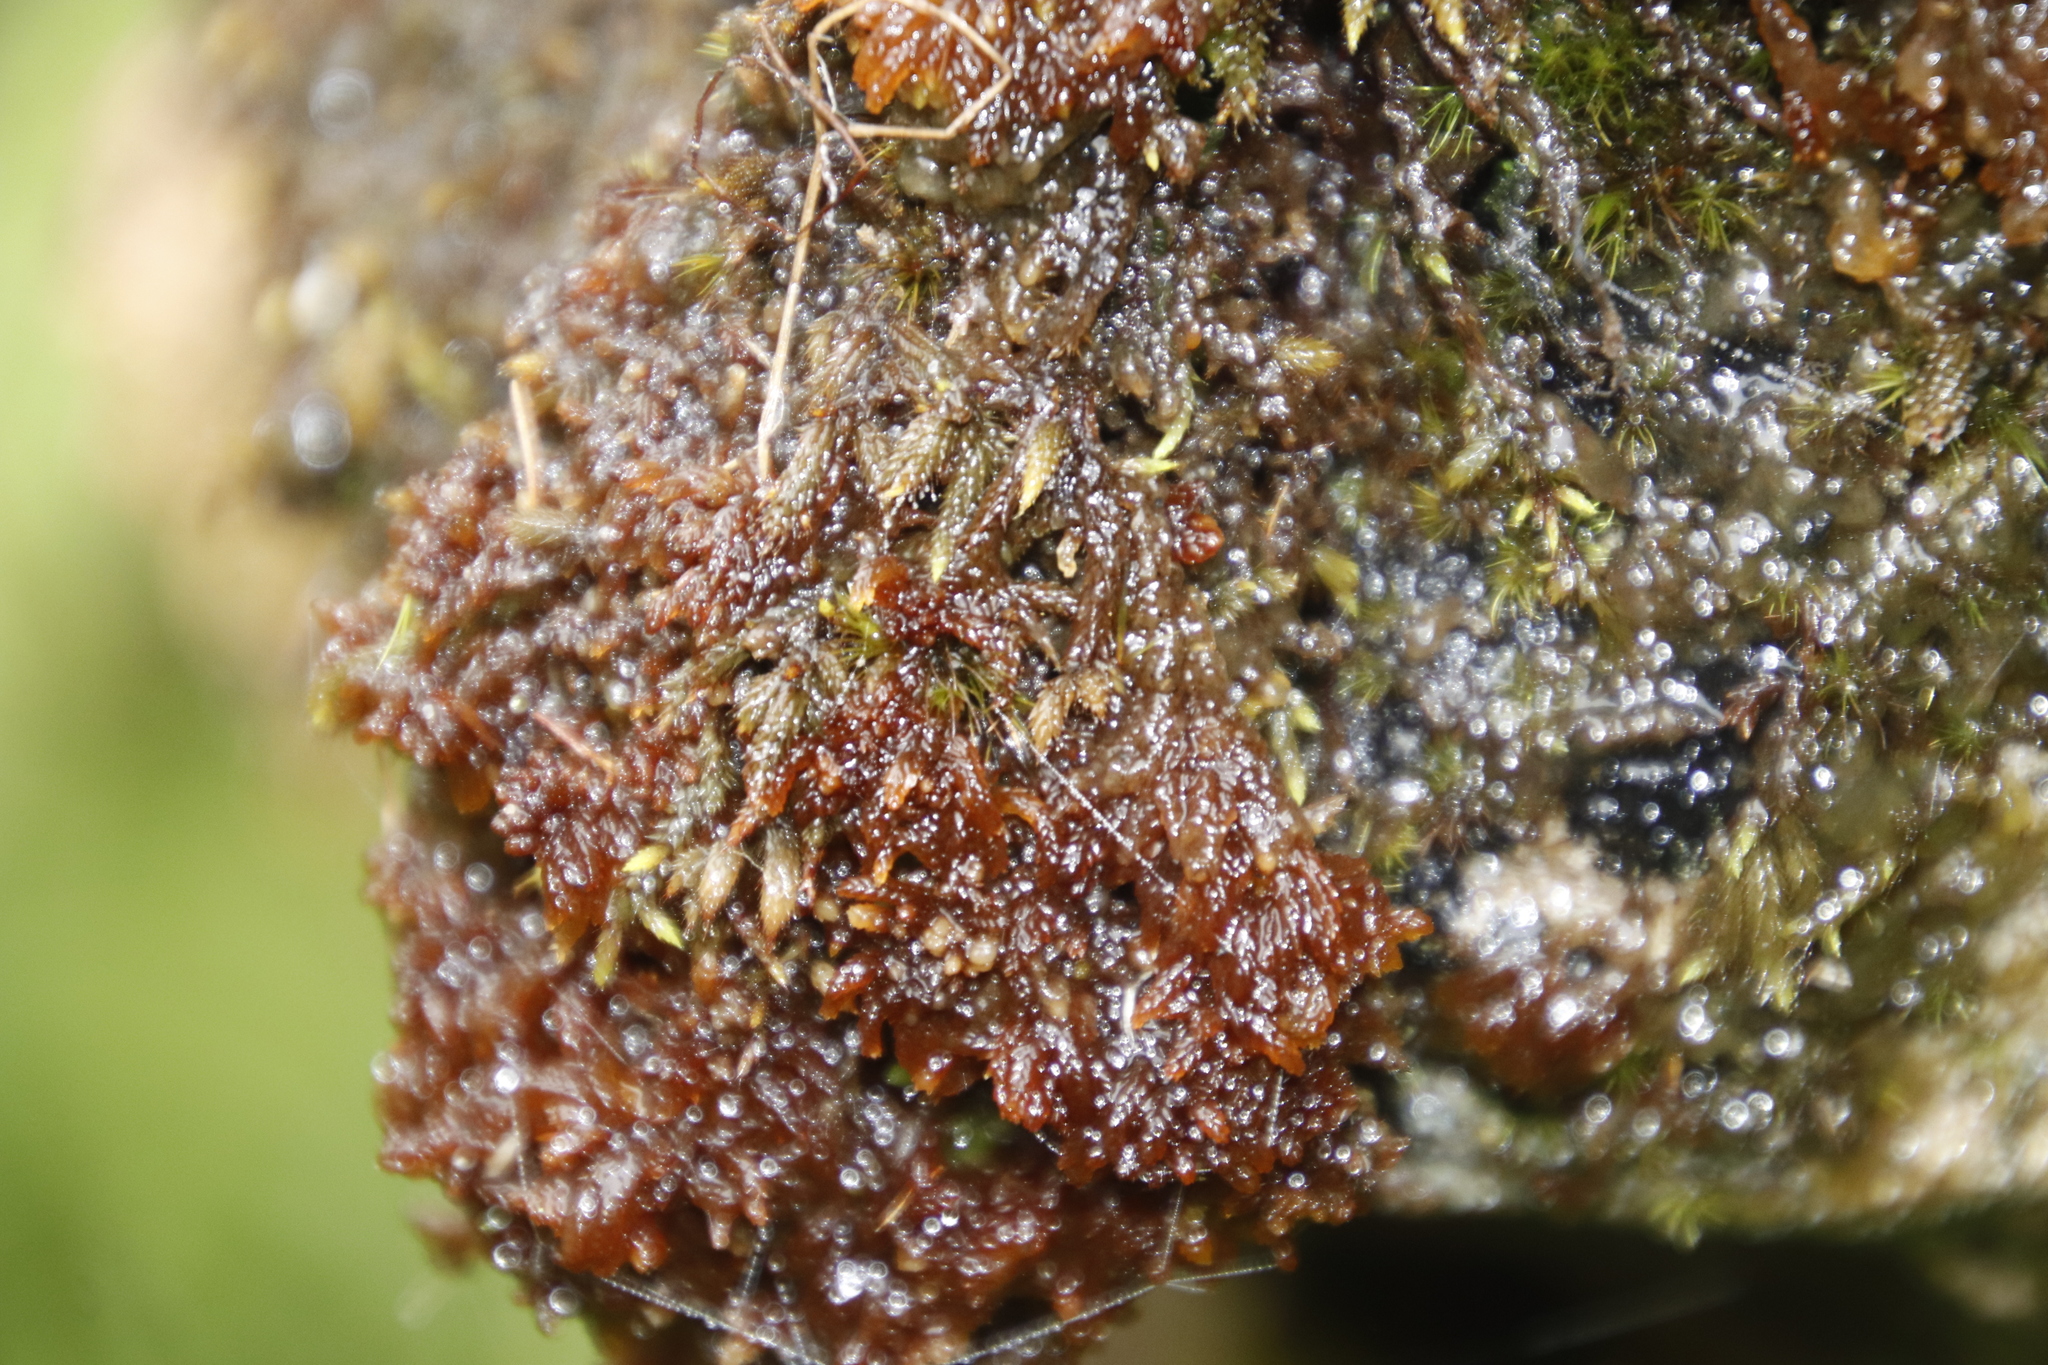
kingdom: Plantae
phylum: Bryophyta
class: Bryopsida
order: Hedwigiales
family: Hedwigiaceae
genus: Rhacocarpus
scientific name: Rhacocarpus purpurascens
